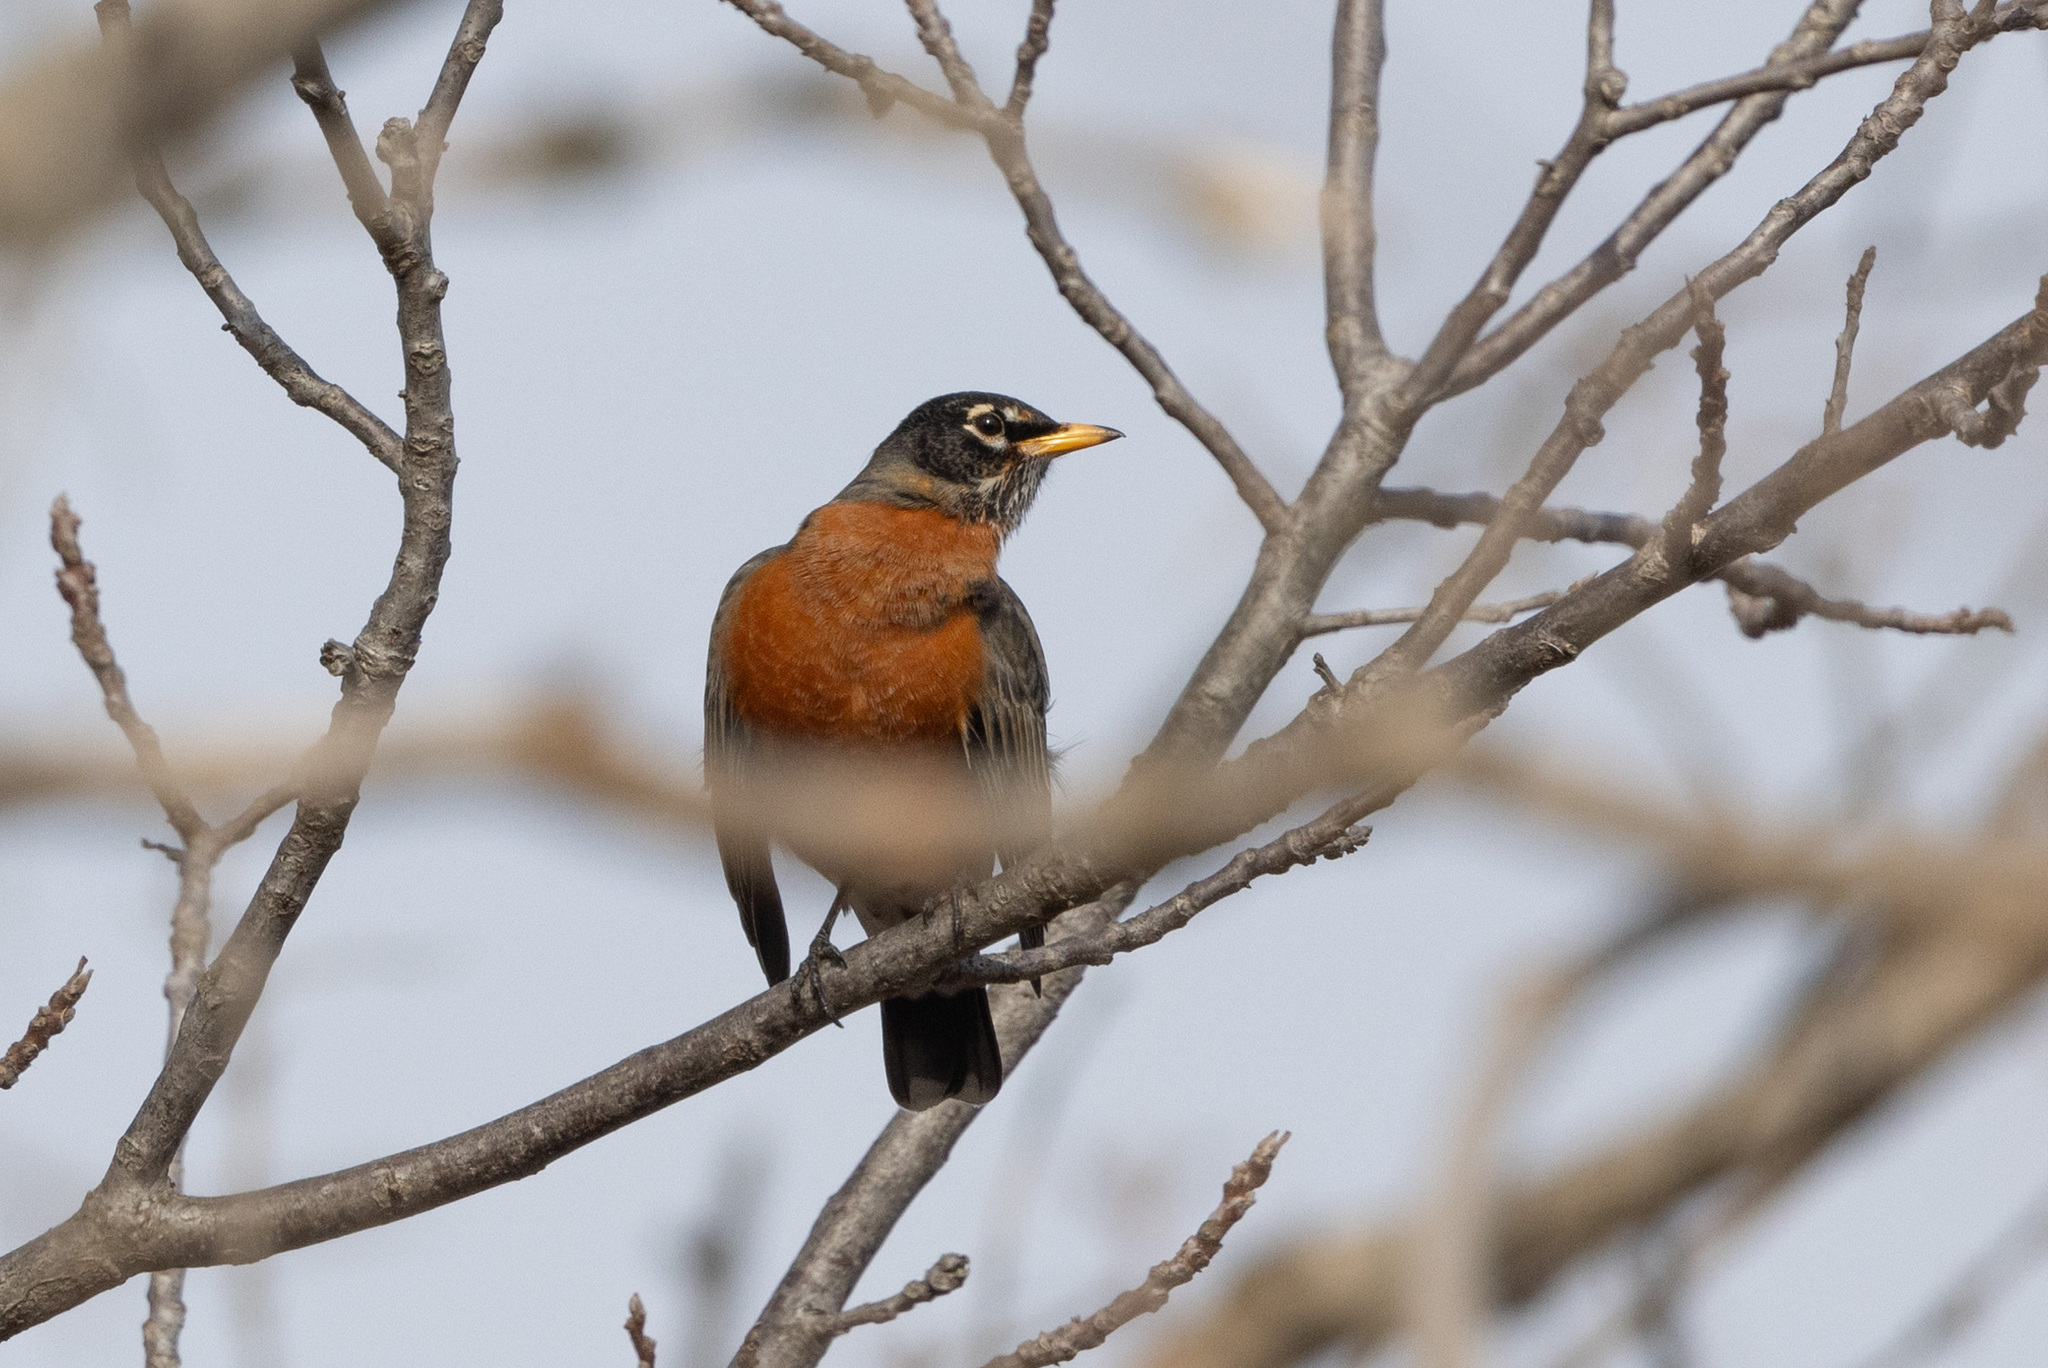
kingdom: Animalia
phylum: Chordata
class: Aves
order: Passeriformes
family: Turdidae
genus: Turdus
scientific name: Turdus migratorius
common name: American robin
